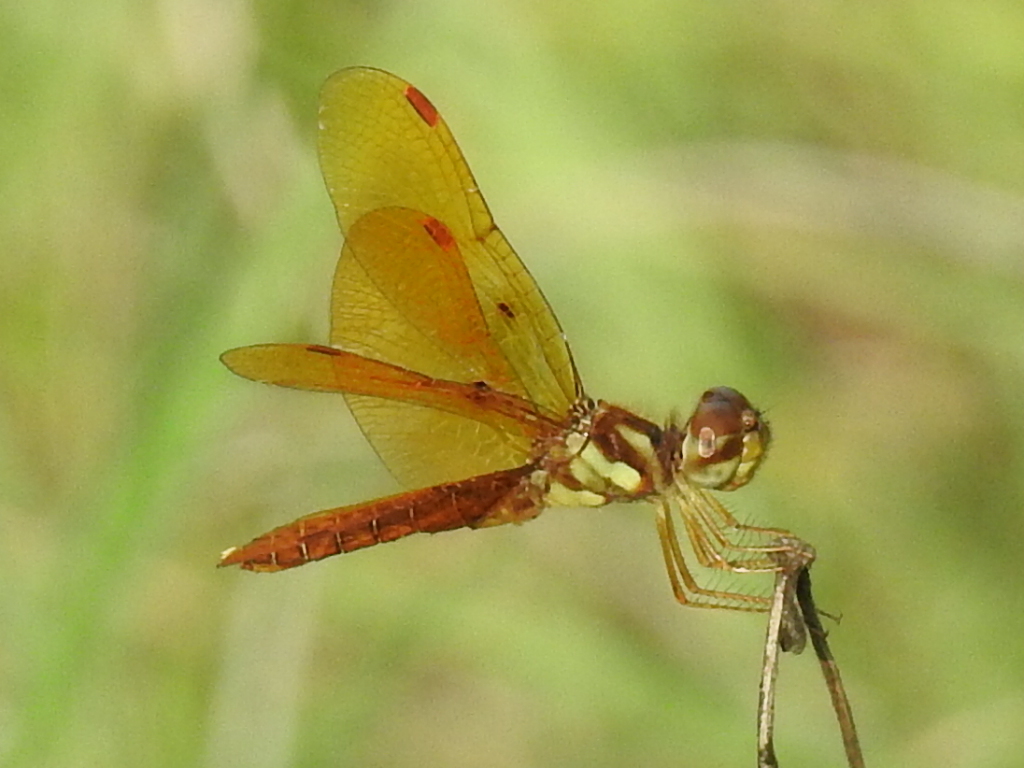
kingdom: Animalia
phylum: Arthropoda
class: Insecta
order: Odonata
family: Libellulidae
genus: Perithemis
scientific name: Perithemis tenera
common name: Eastern amberwing
